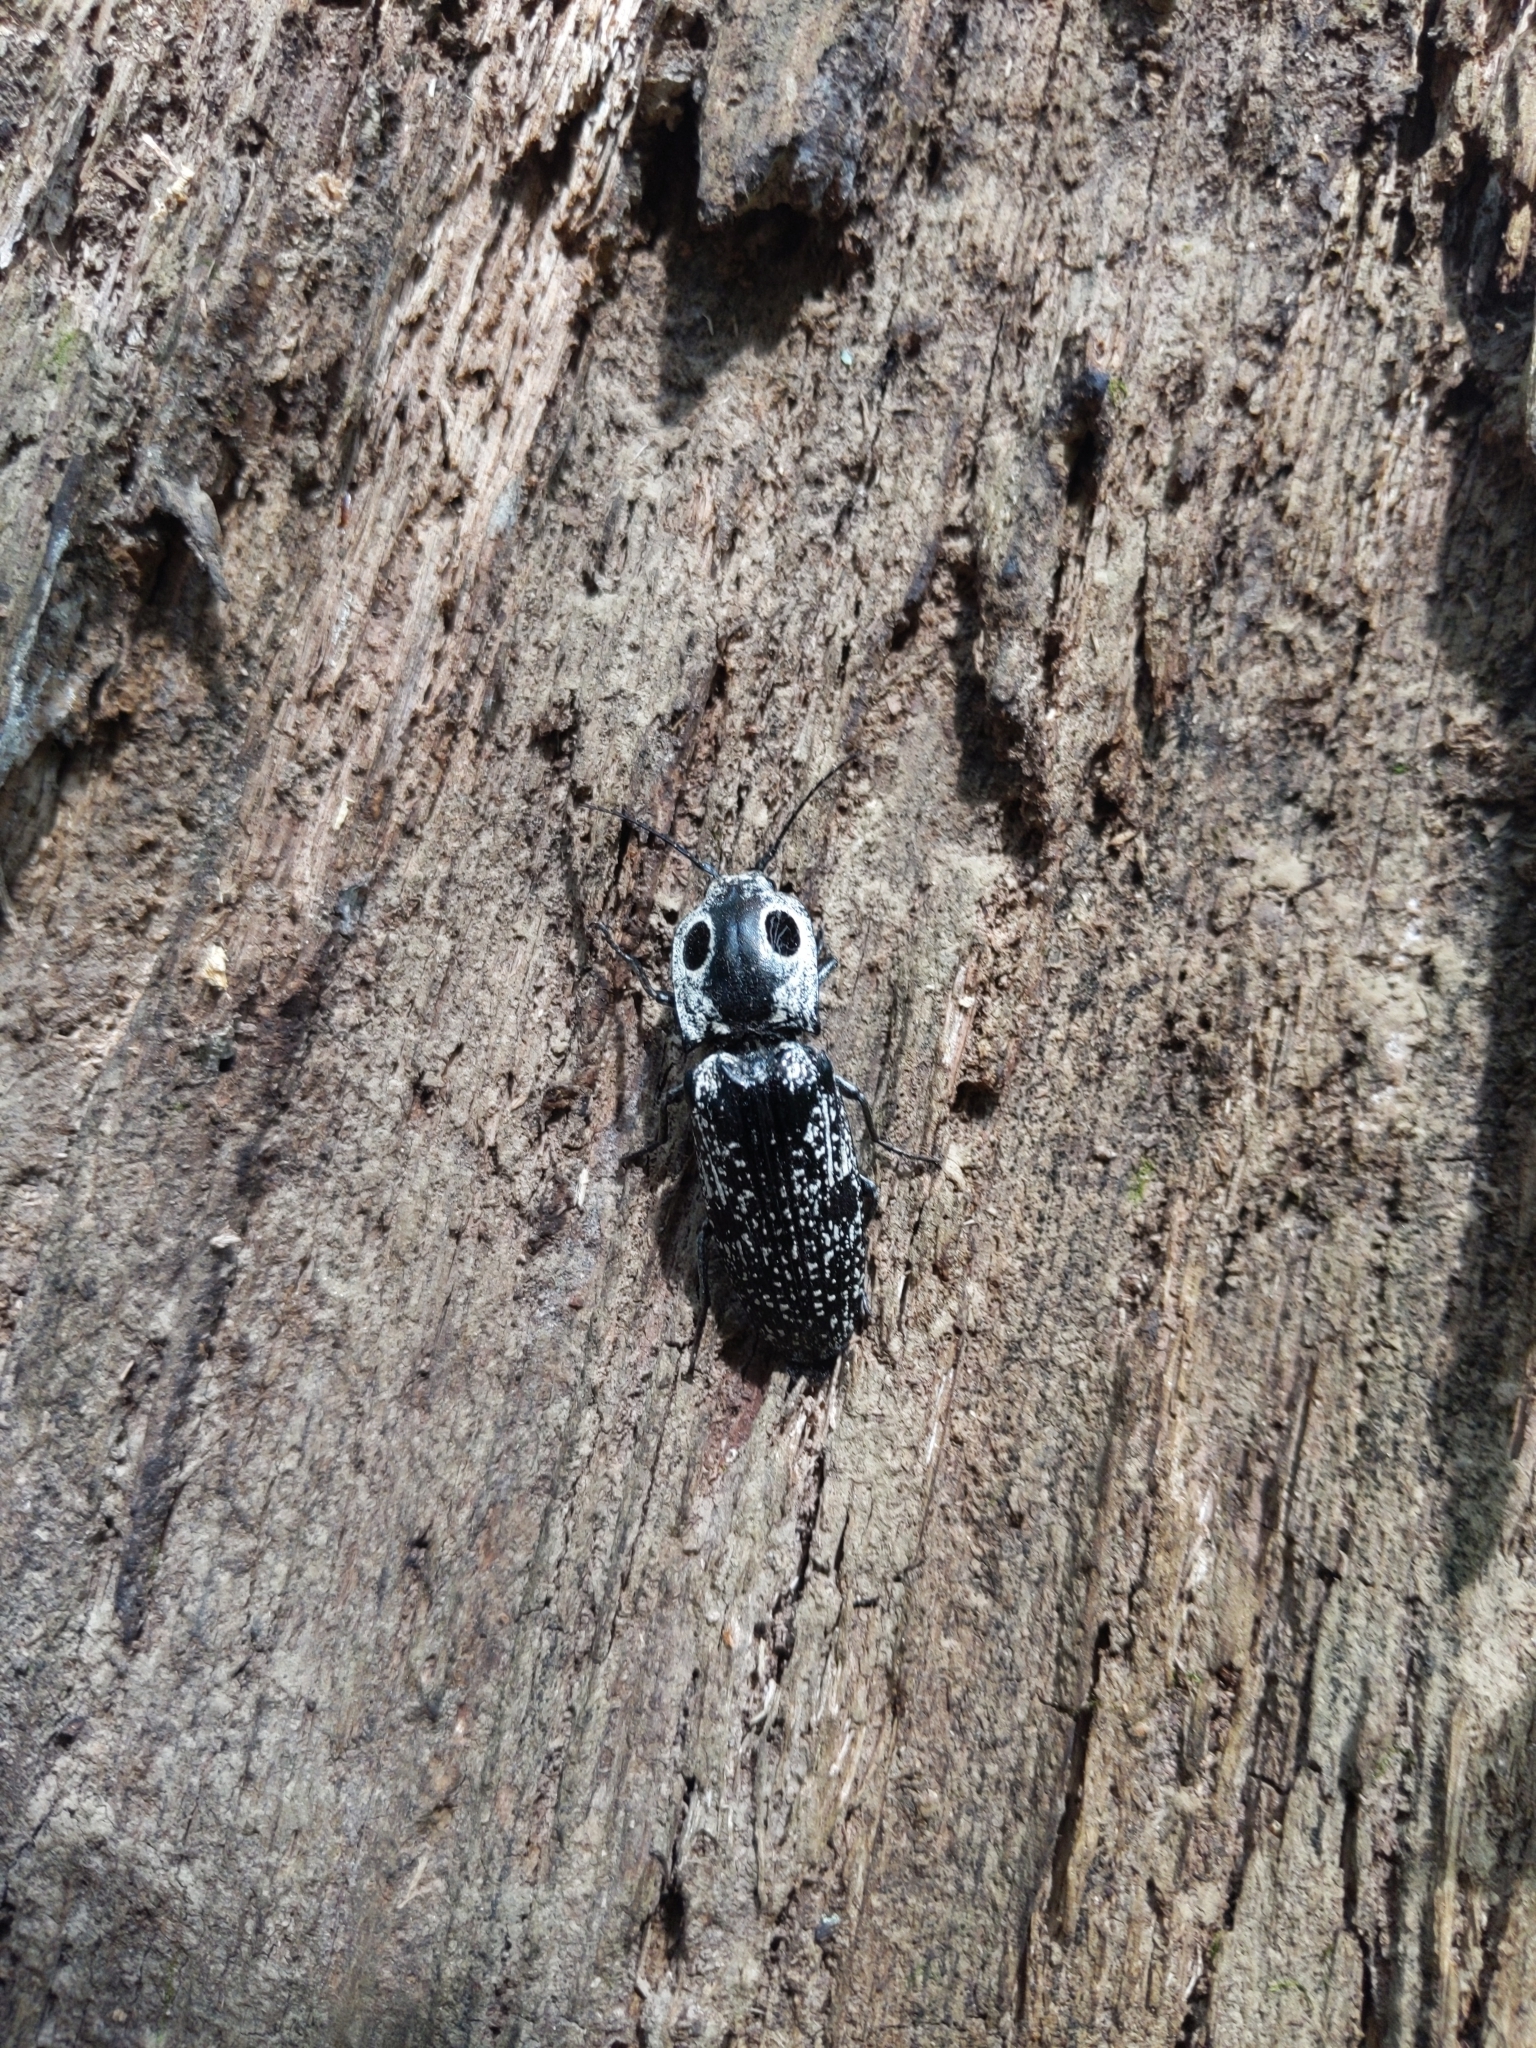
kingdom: Animalia
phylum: Arthropoda
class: Insecta
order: Coleoptera
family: Elateridae
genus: Alaus
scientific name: Alaus oculatus
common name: Eastern eyed click beetle
